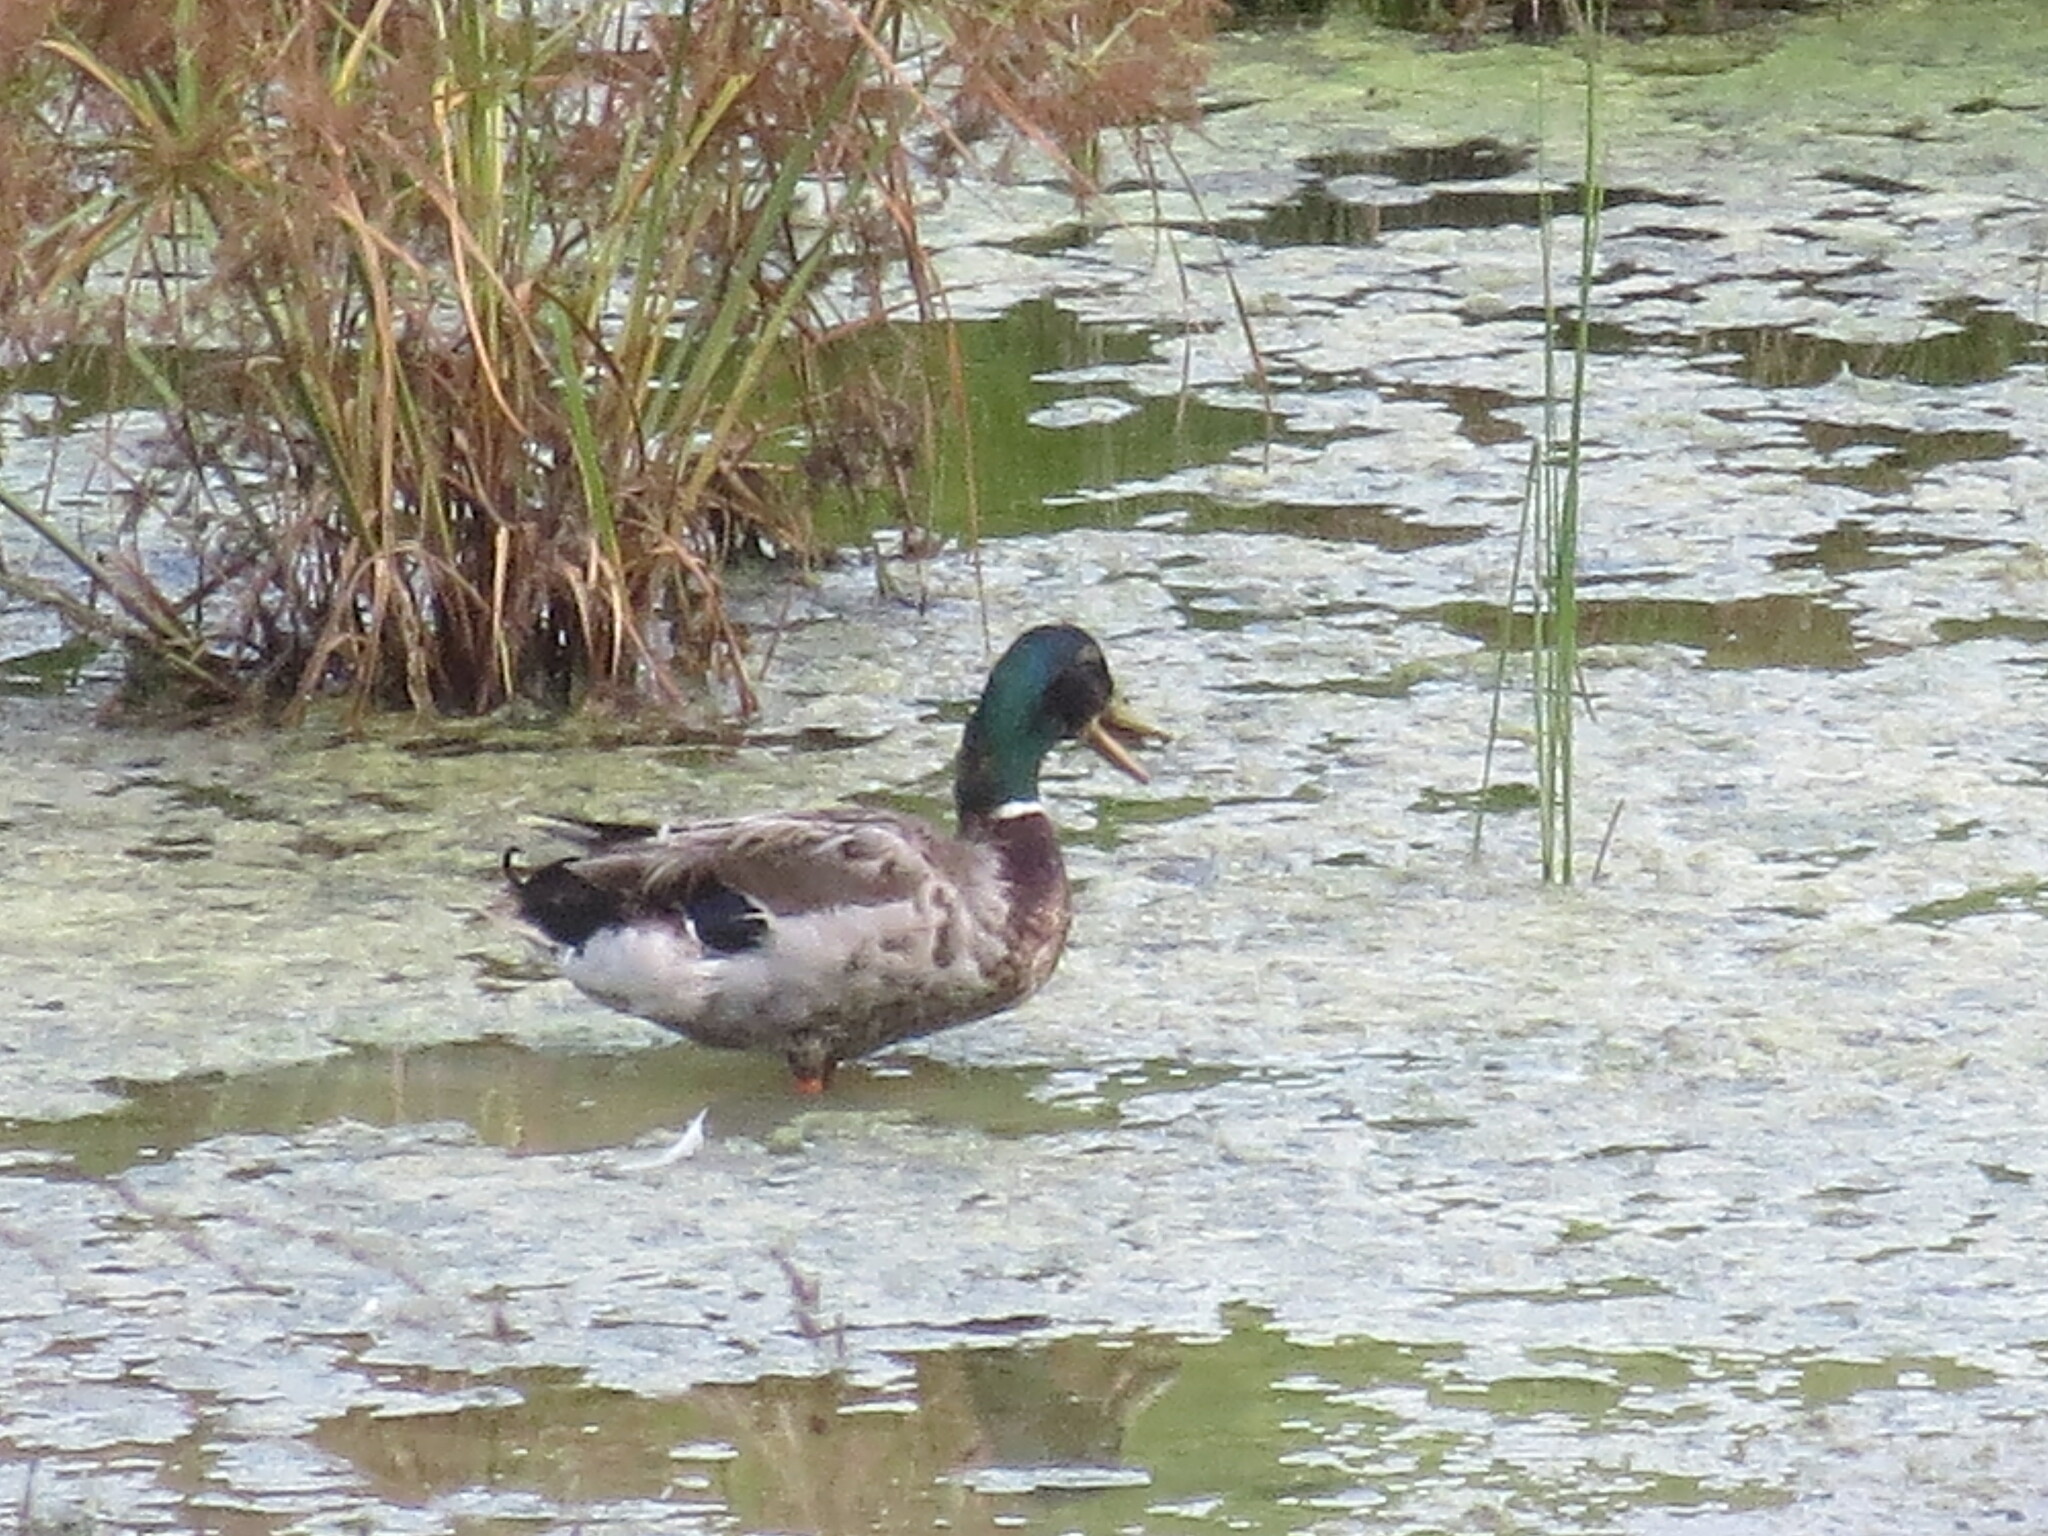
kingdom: Animalia
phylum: Chordata
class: Aves
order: Anseriformes
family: Anatidae
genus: Anas
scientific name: Anas platyrhynchos
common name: Mallard
